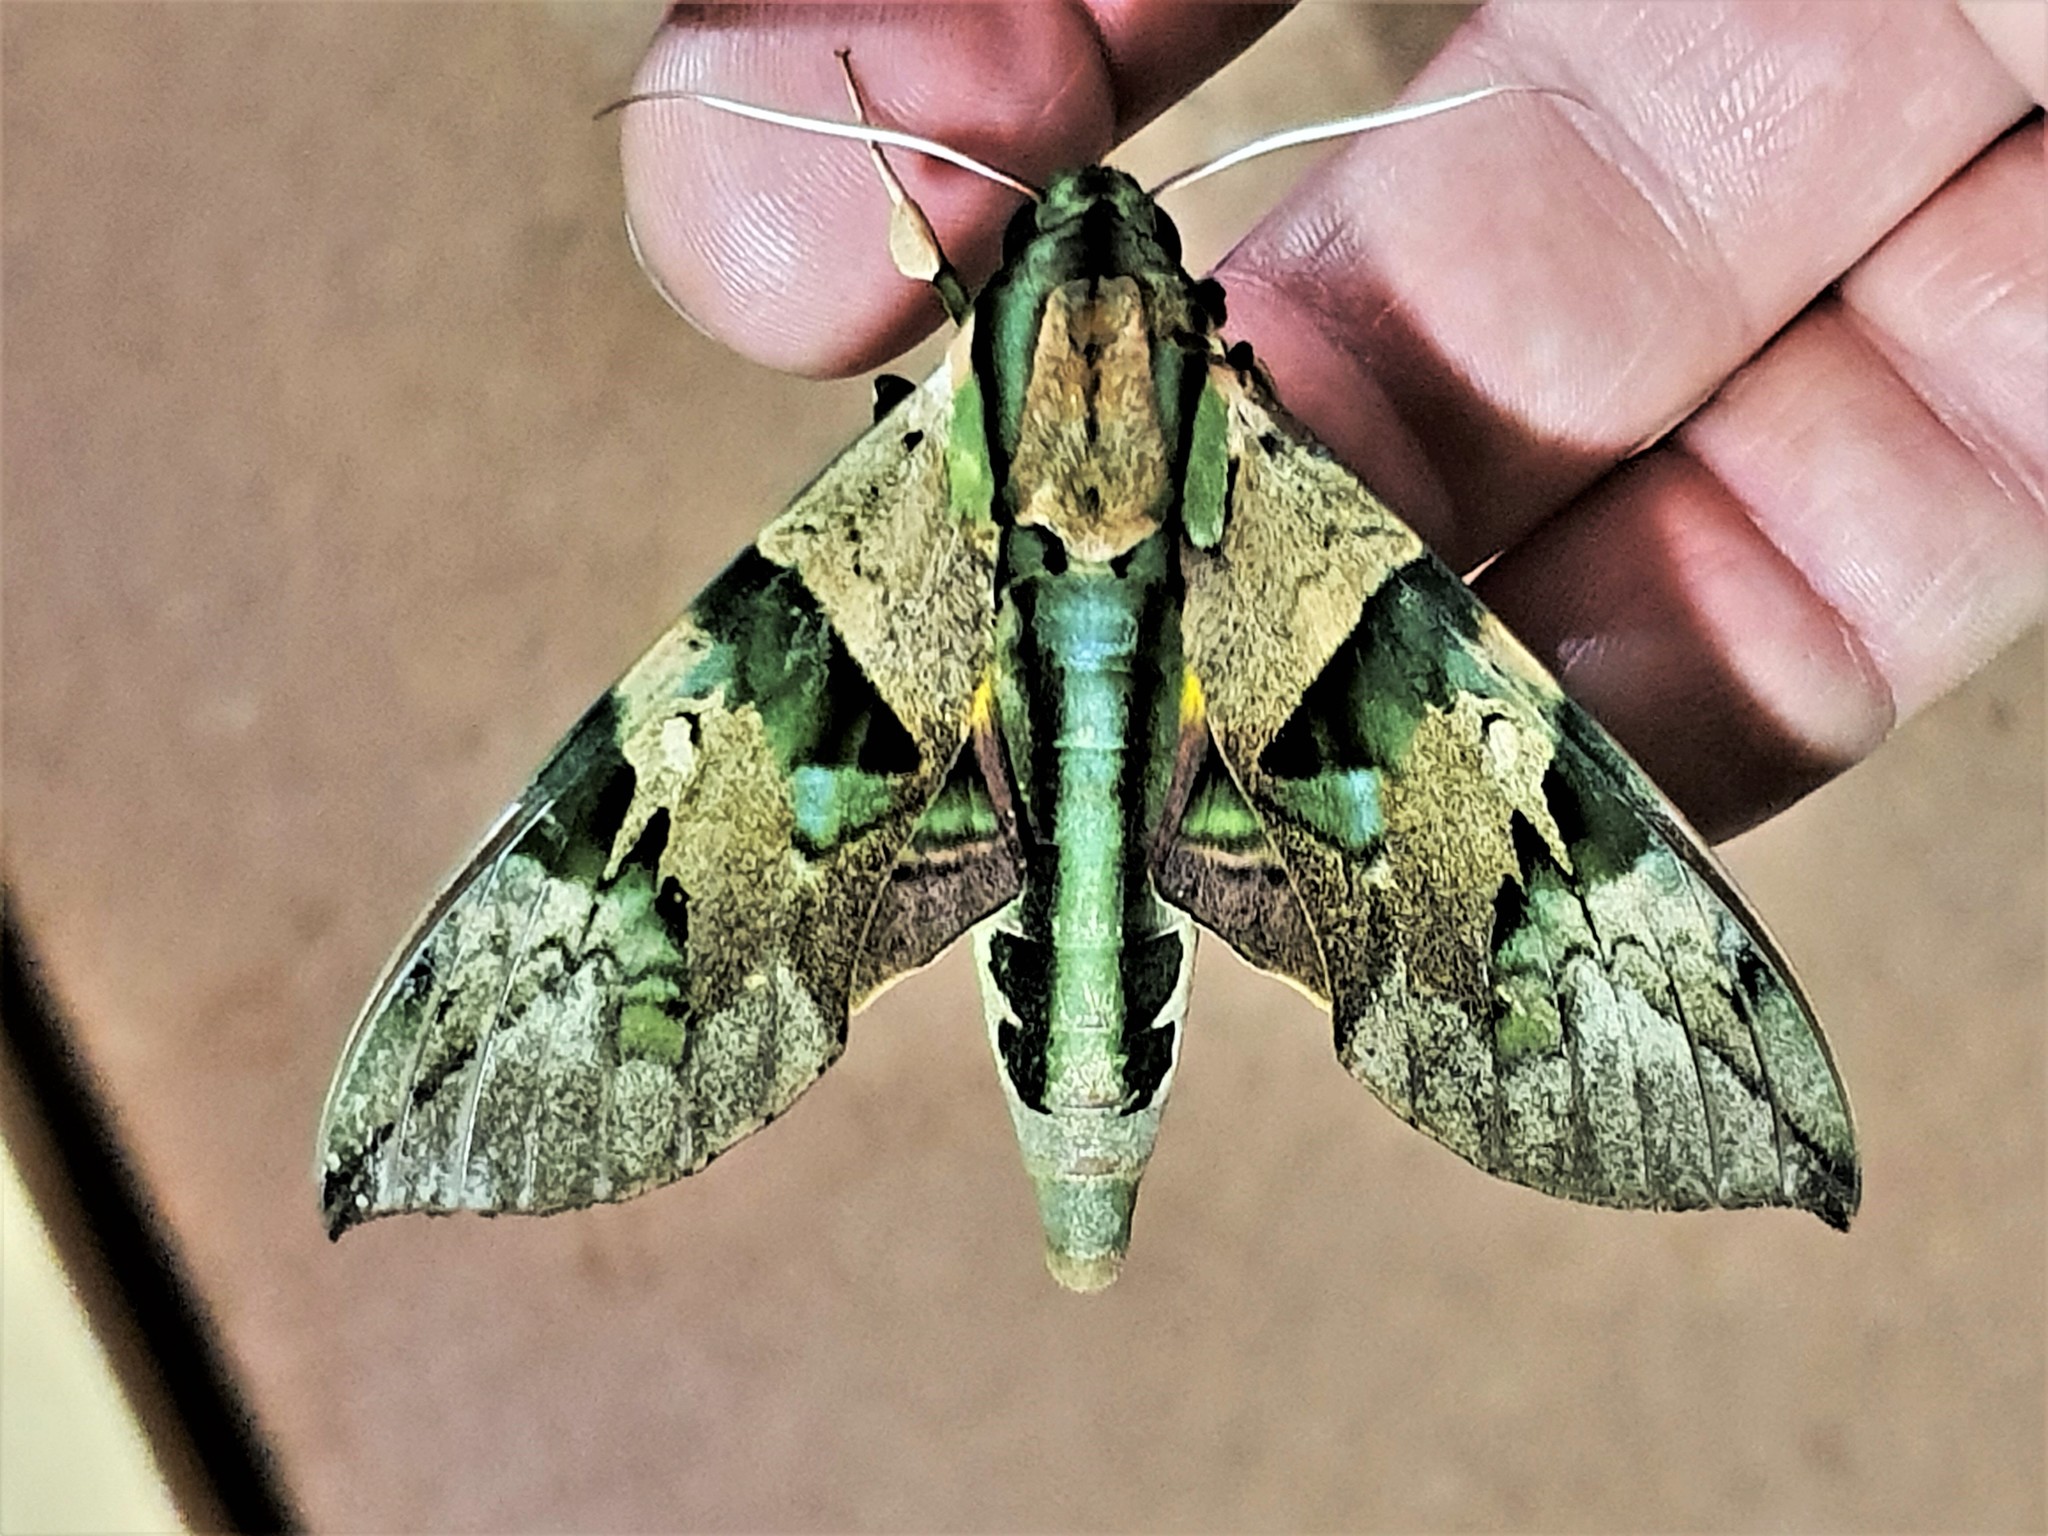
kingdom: Animalia
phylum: Arthropoda
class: Insecta
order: Lepidoptera
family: Sphingidae
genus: Eumorpha
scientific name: Eumorpha capronnieri
